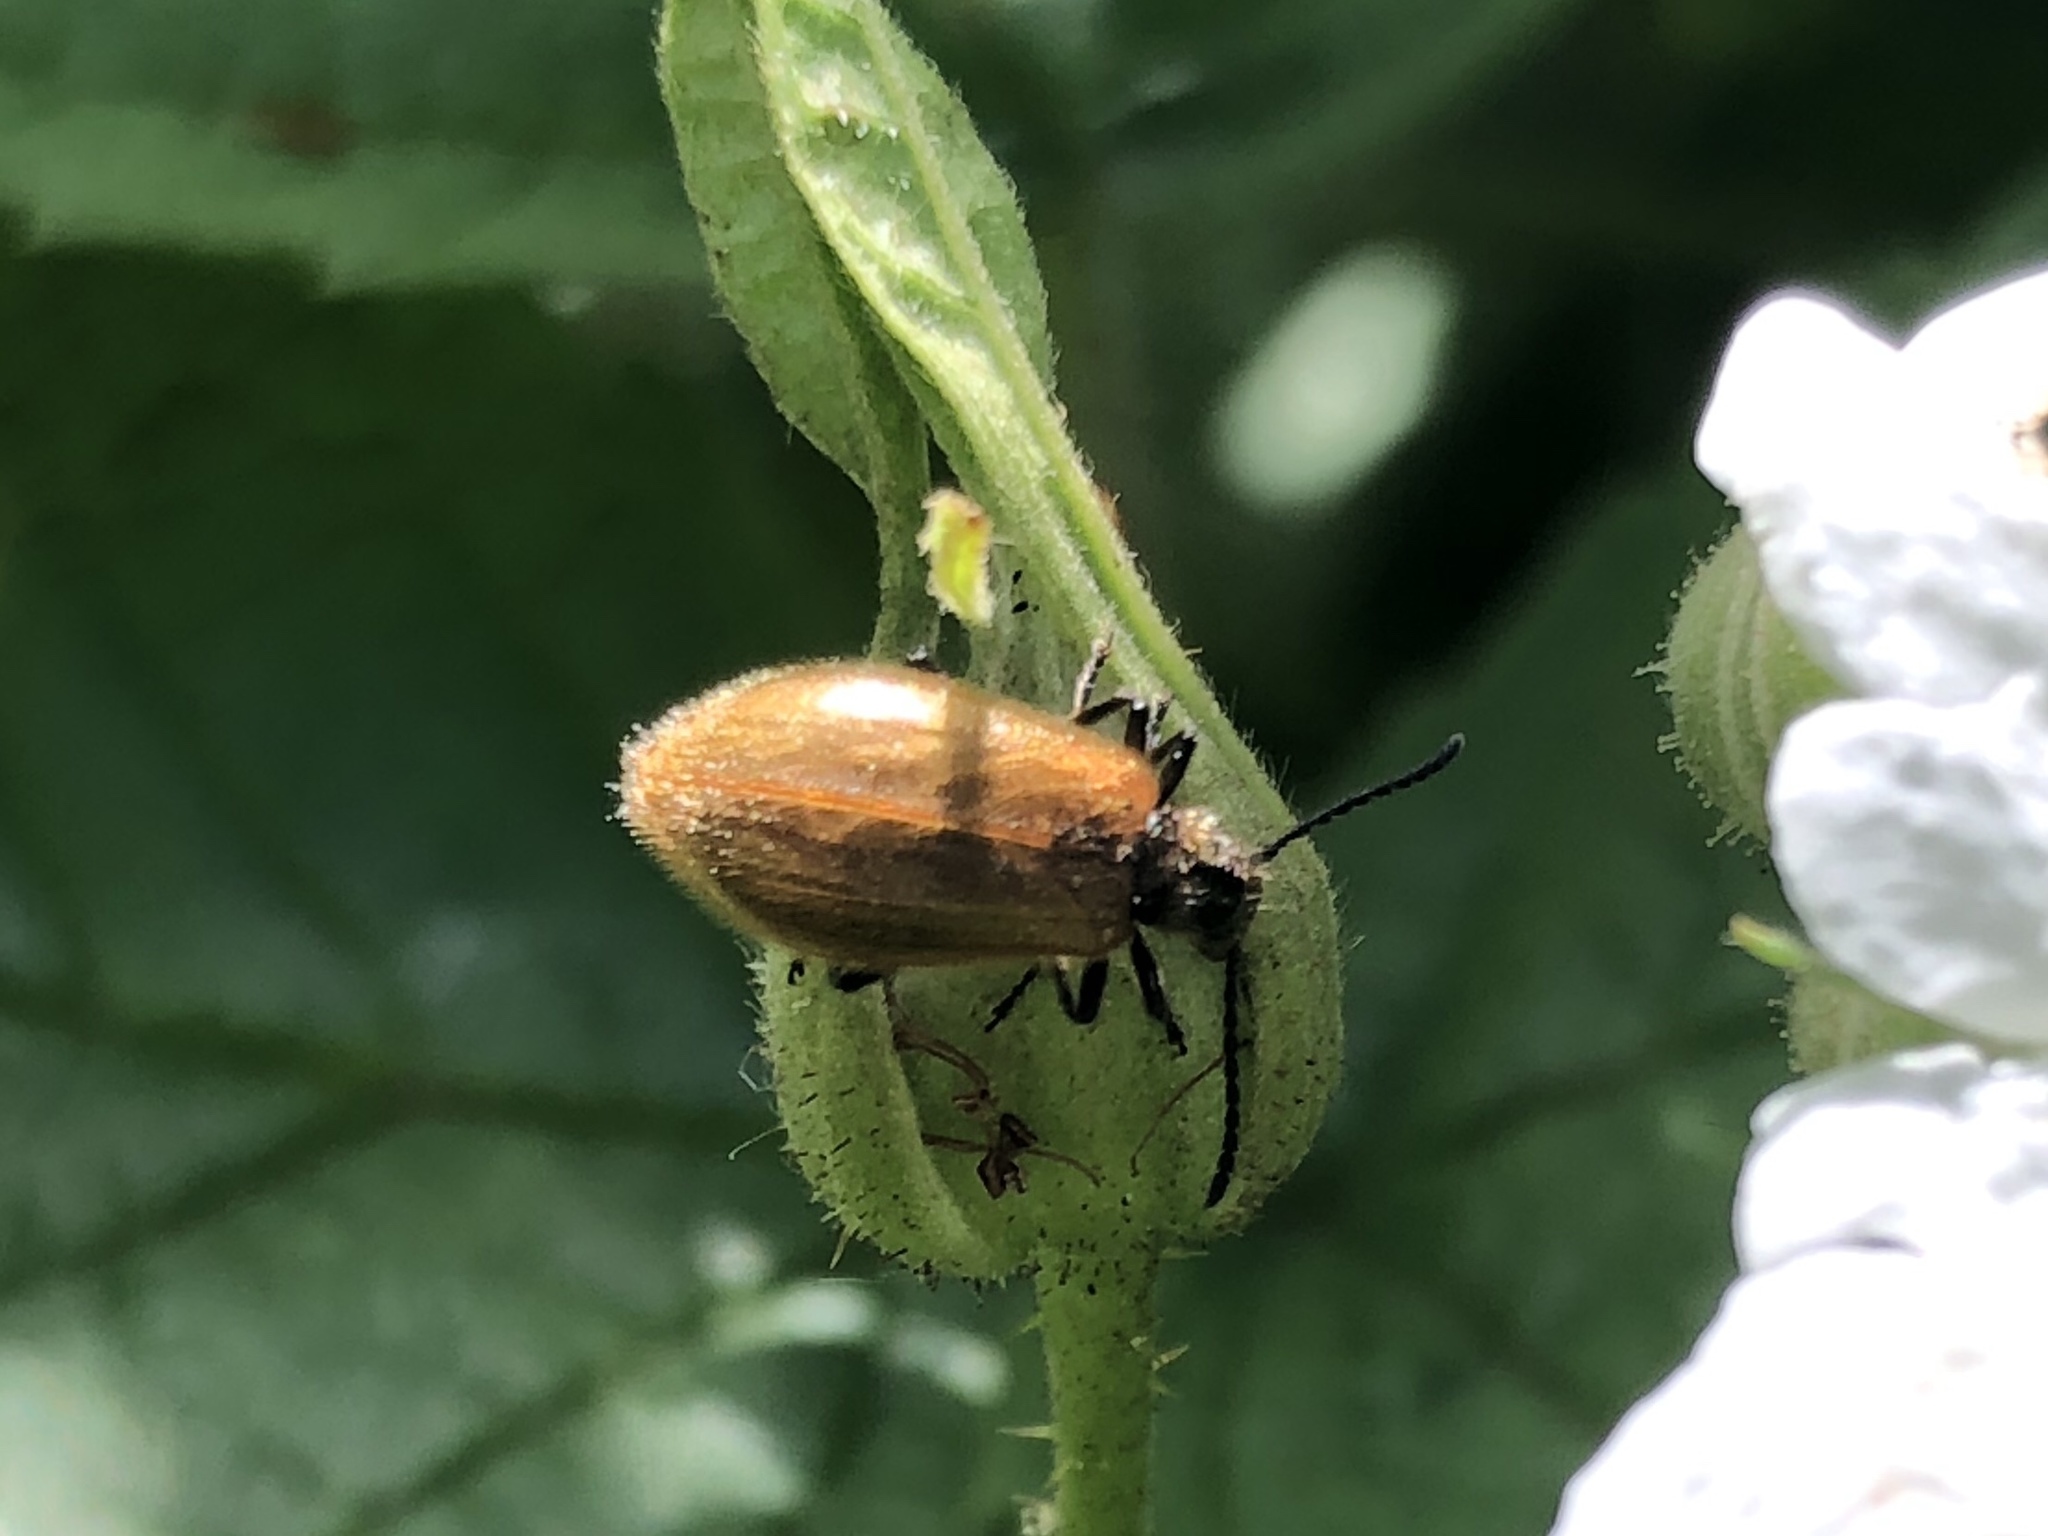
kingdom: Animalia
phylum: Arthropoda
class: Insecta
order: Coleoptera
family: Tenebrionidae
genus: Lagria
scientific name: Lagria hirta
